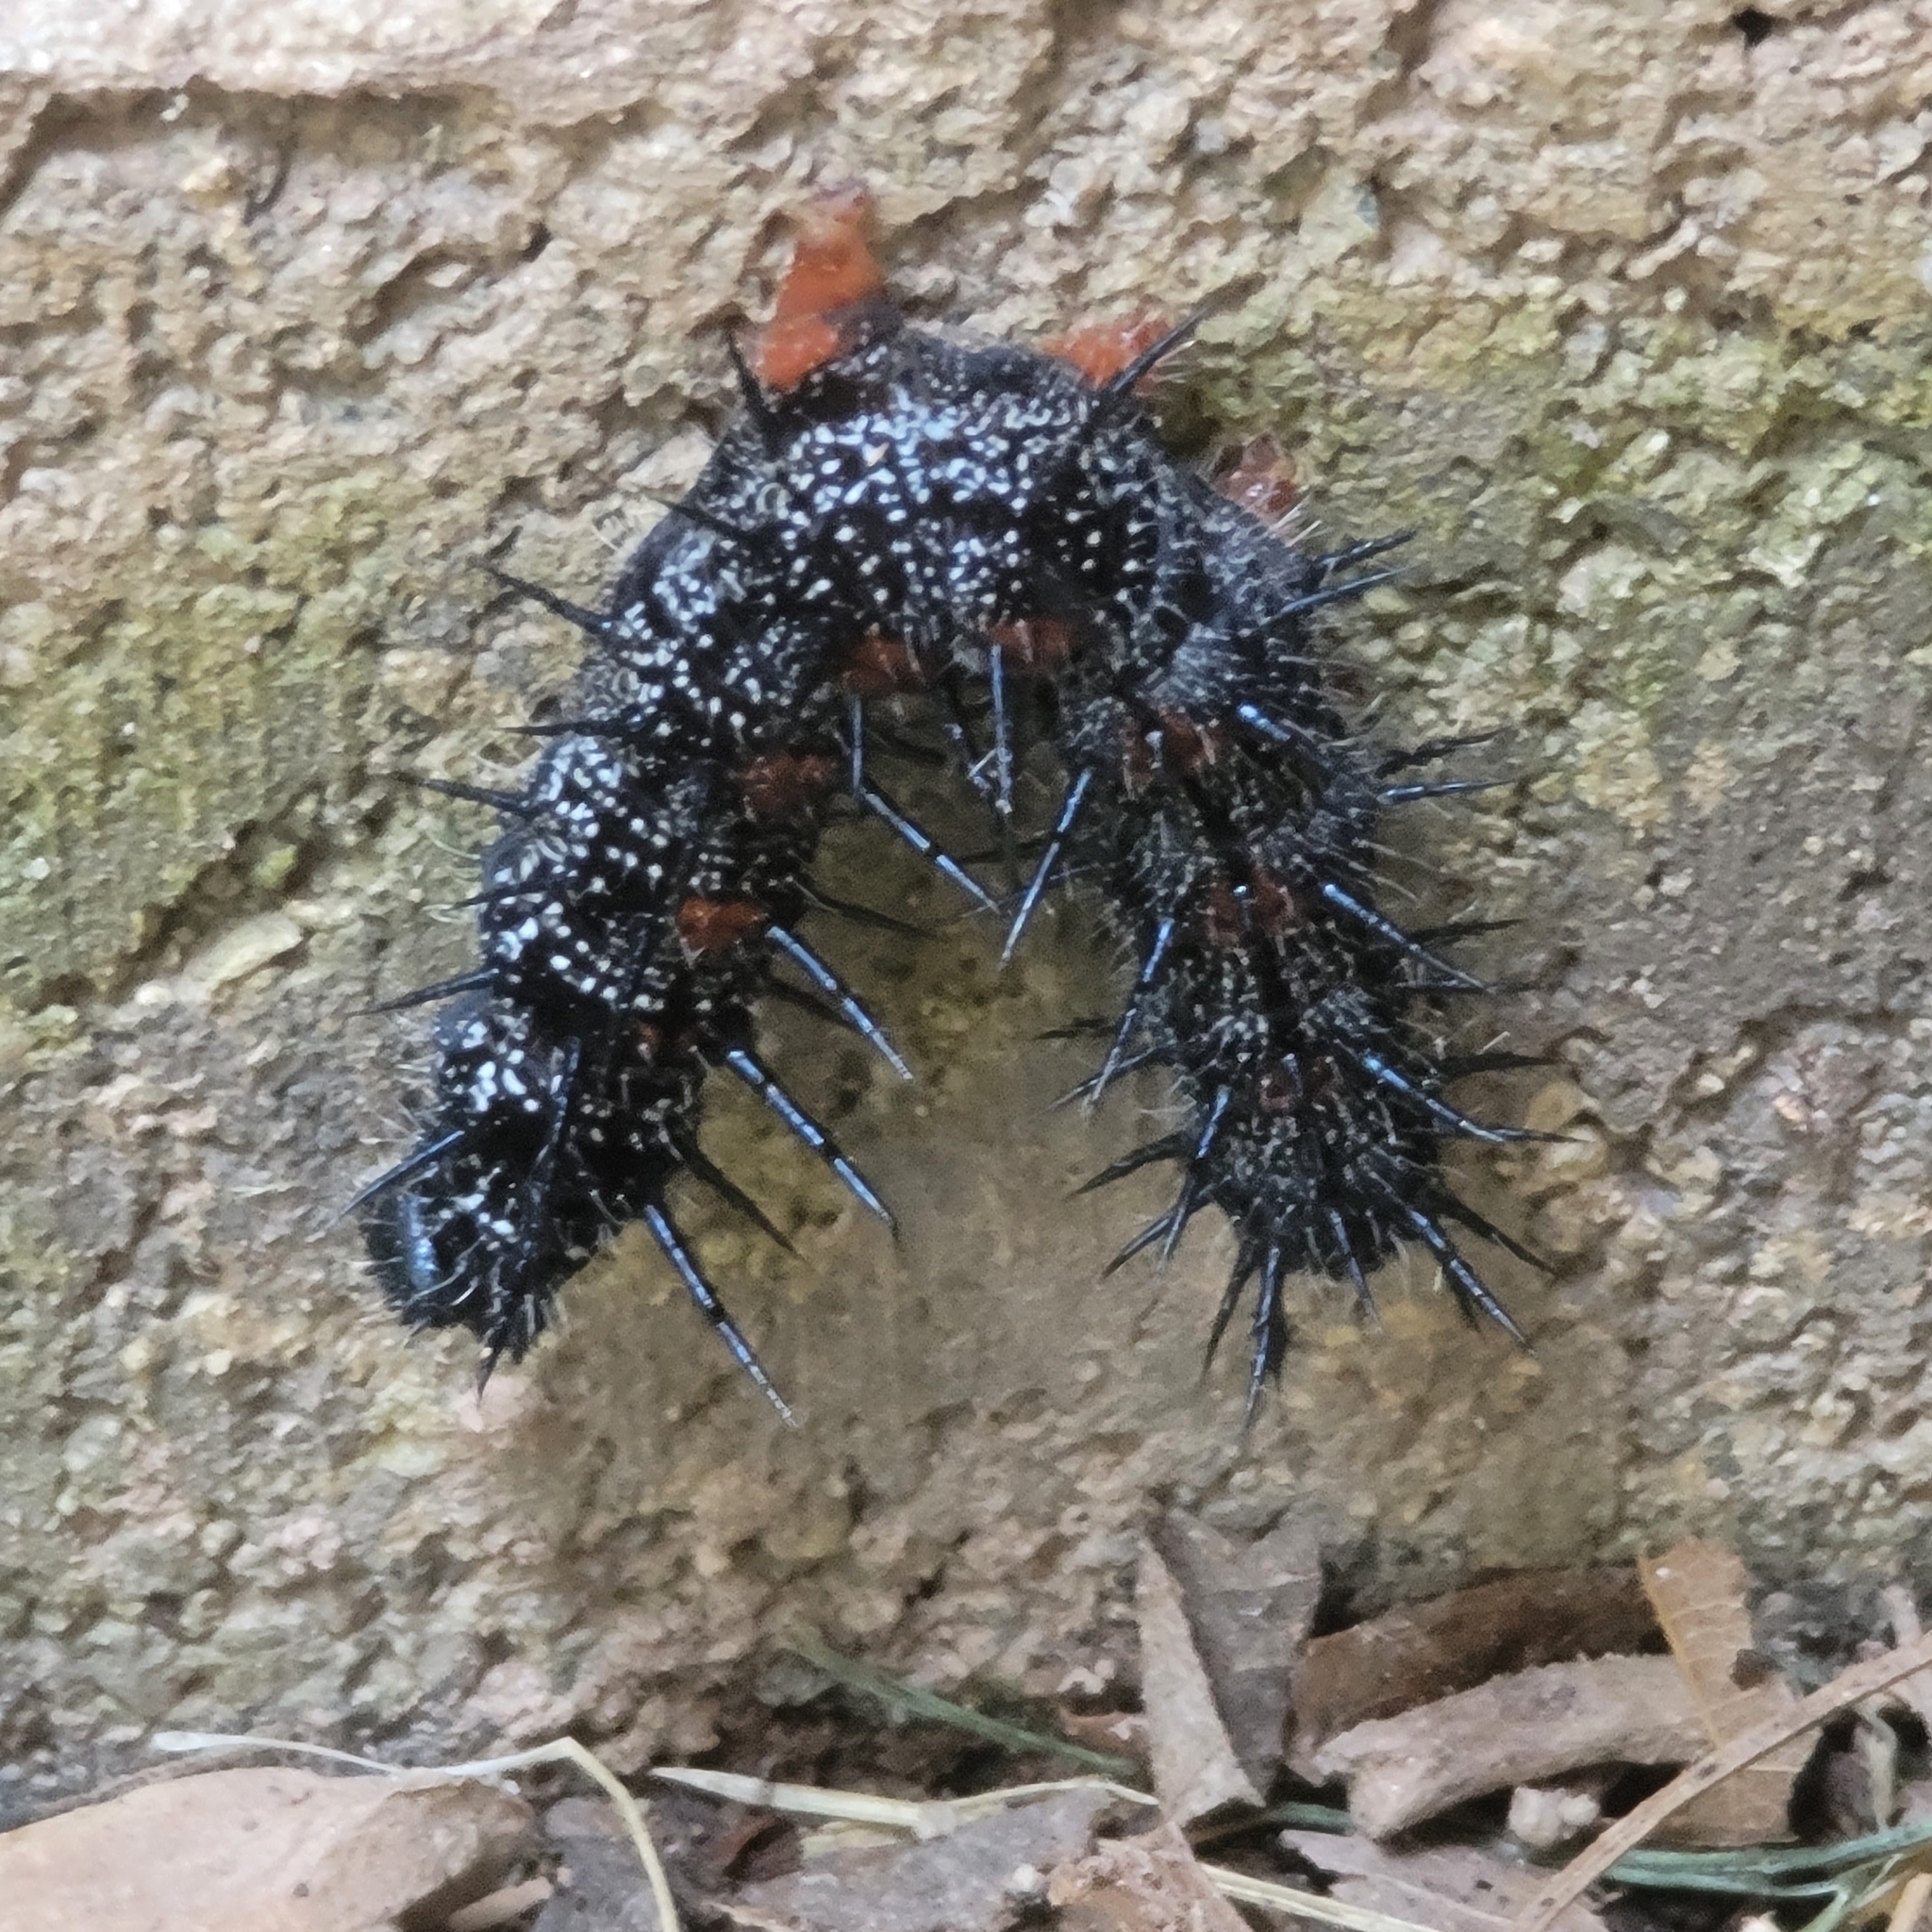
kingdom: Animalia
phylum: Arthropoda
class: Insecta
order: Lepidoptera
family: Nymphalidae
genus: Nymphalis
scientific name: Nymphalis antiopa
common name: Camberwell beauty
